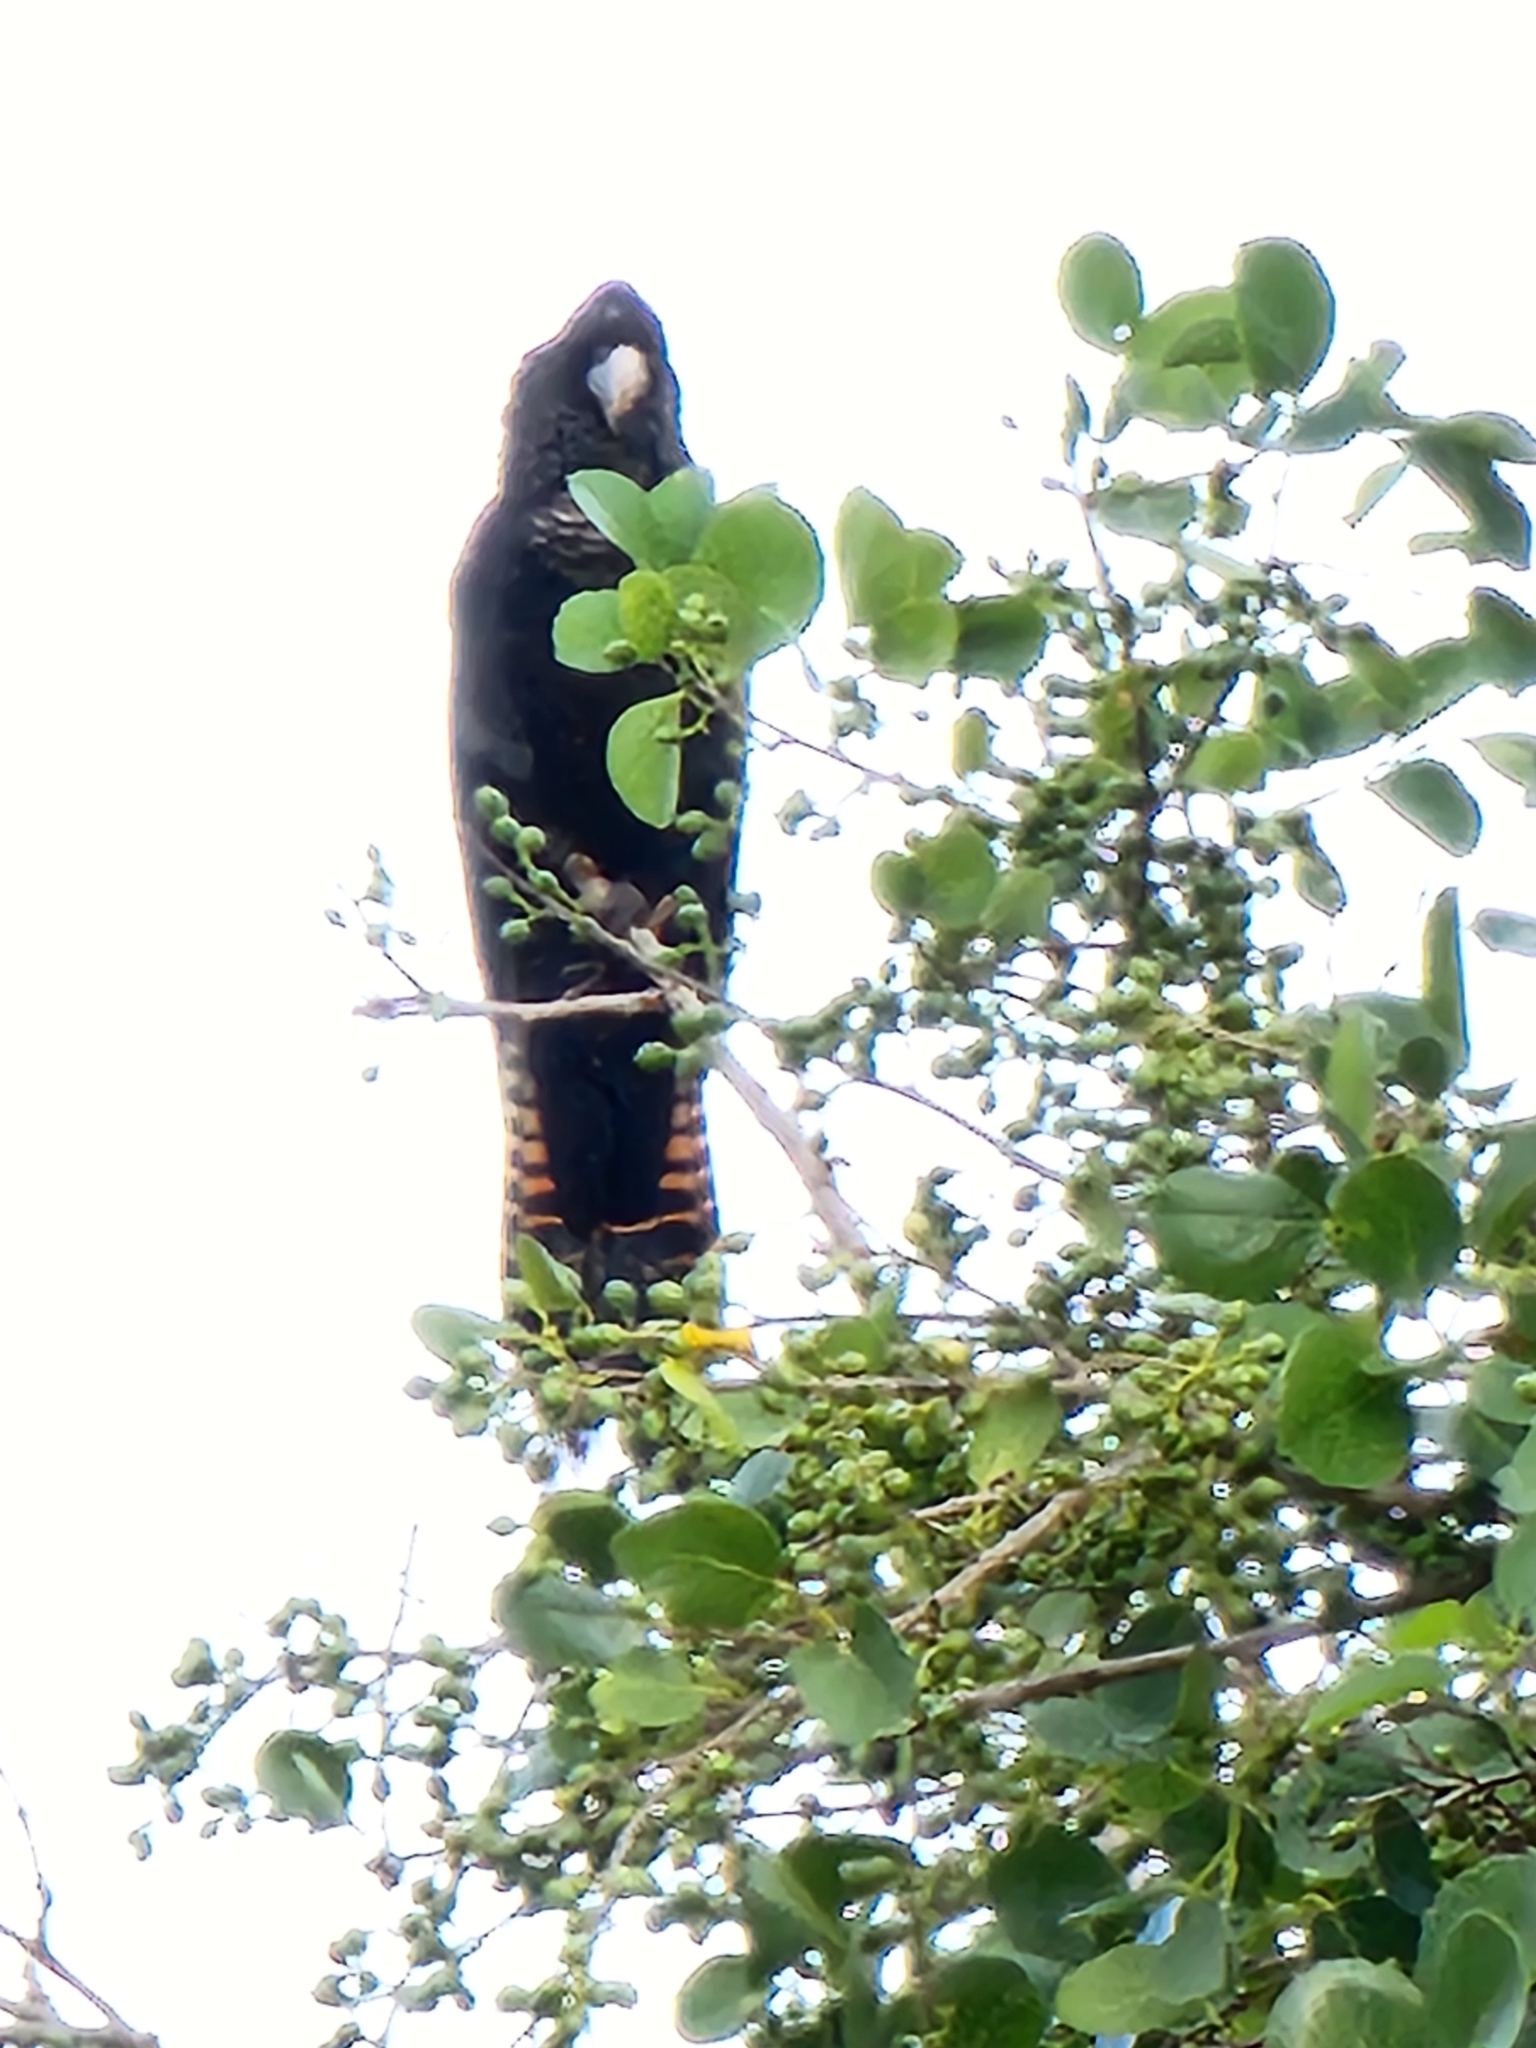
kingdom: Animalia
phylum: Chordata
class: Aves
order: Psittaciformes
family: Psittacidae
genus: Calyptorhynchus
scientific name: Calyptorhynchus banksii
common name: Red-tailed black cockatoo
